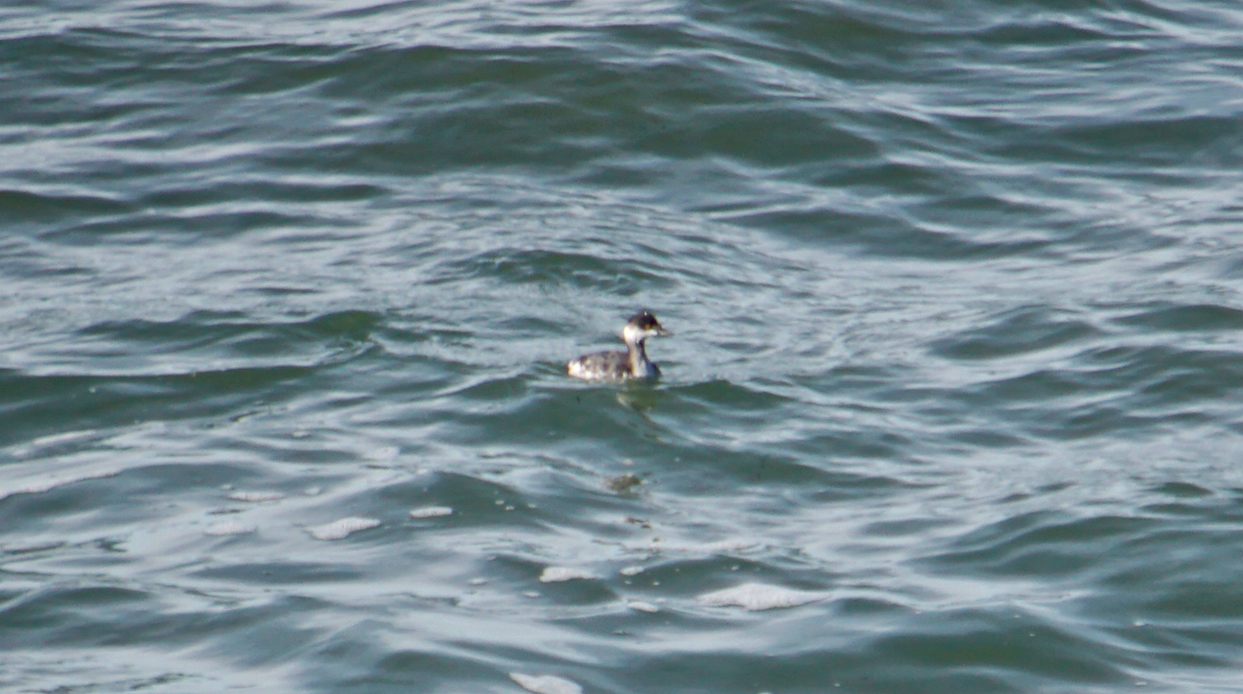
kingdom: Animalia
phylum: Chordata
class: Aves
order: Podicipediformes
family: Podicipedidae
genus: Podiceps
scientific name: Podiceps nigricollis
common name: Black-necked grebe
